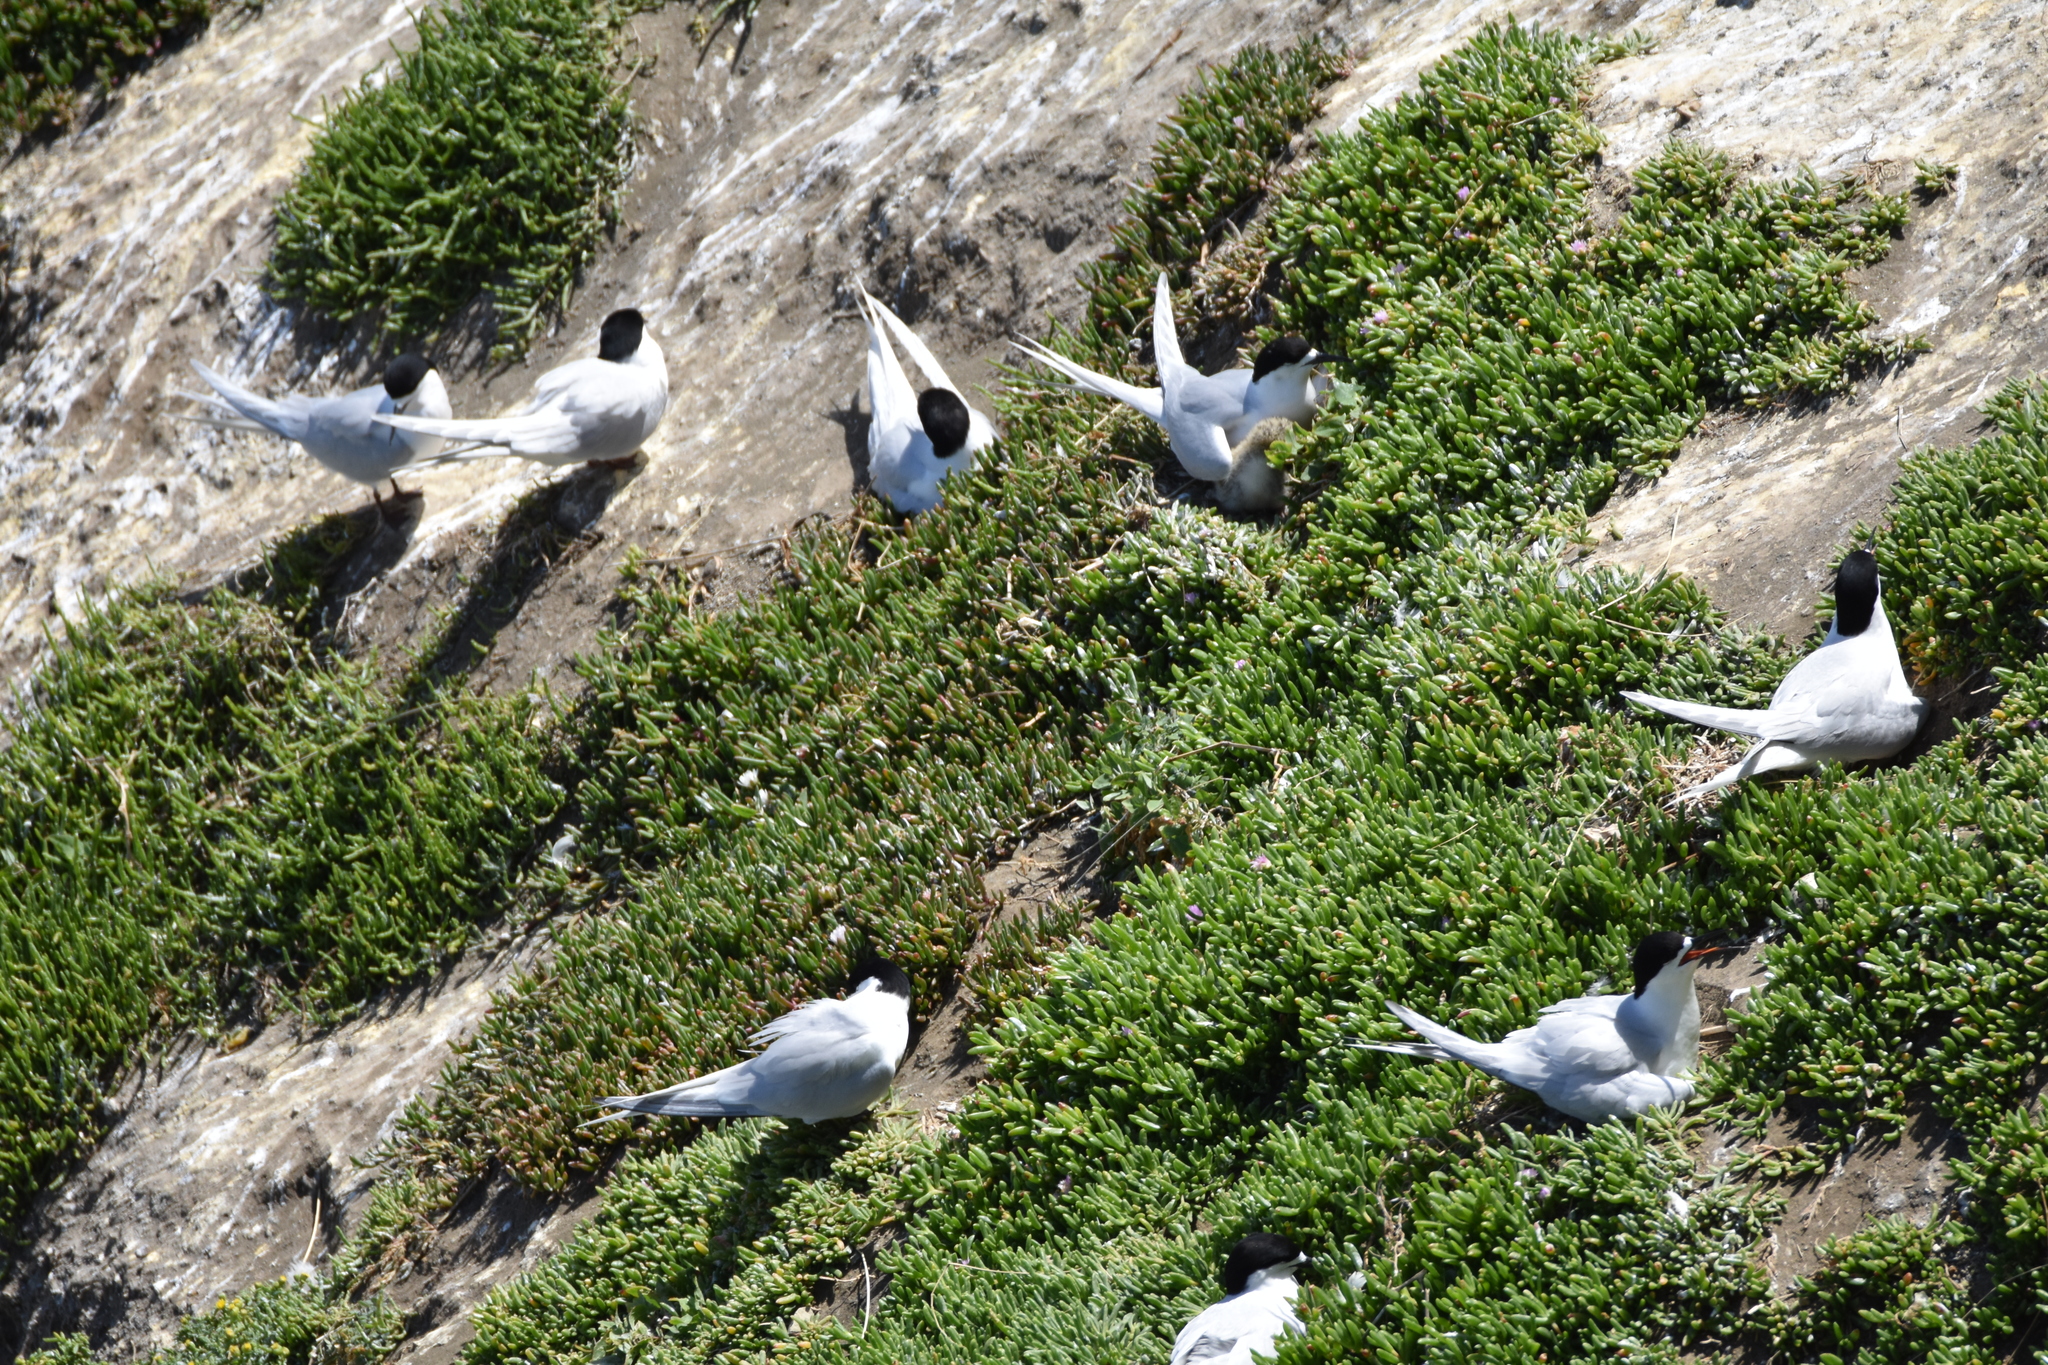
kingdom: Plantae
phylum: Tracheophyta
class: Magnoliopsida
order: Caryophyllales
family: Aizoaceae
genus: Disphyma
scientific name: Disphyma australe
